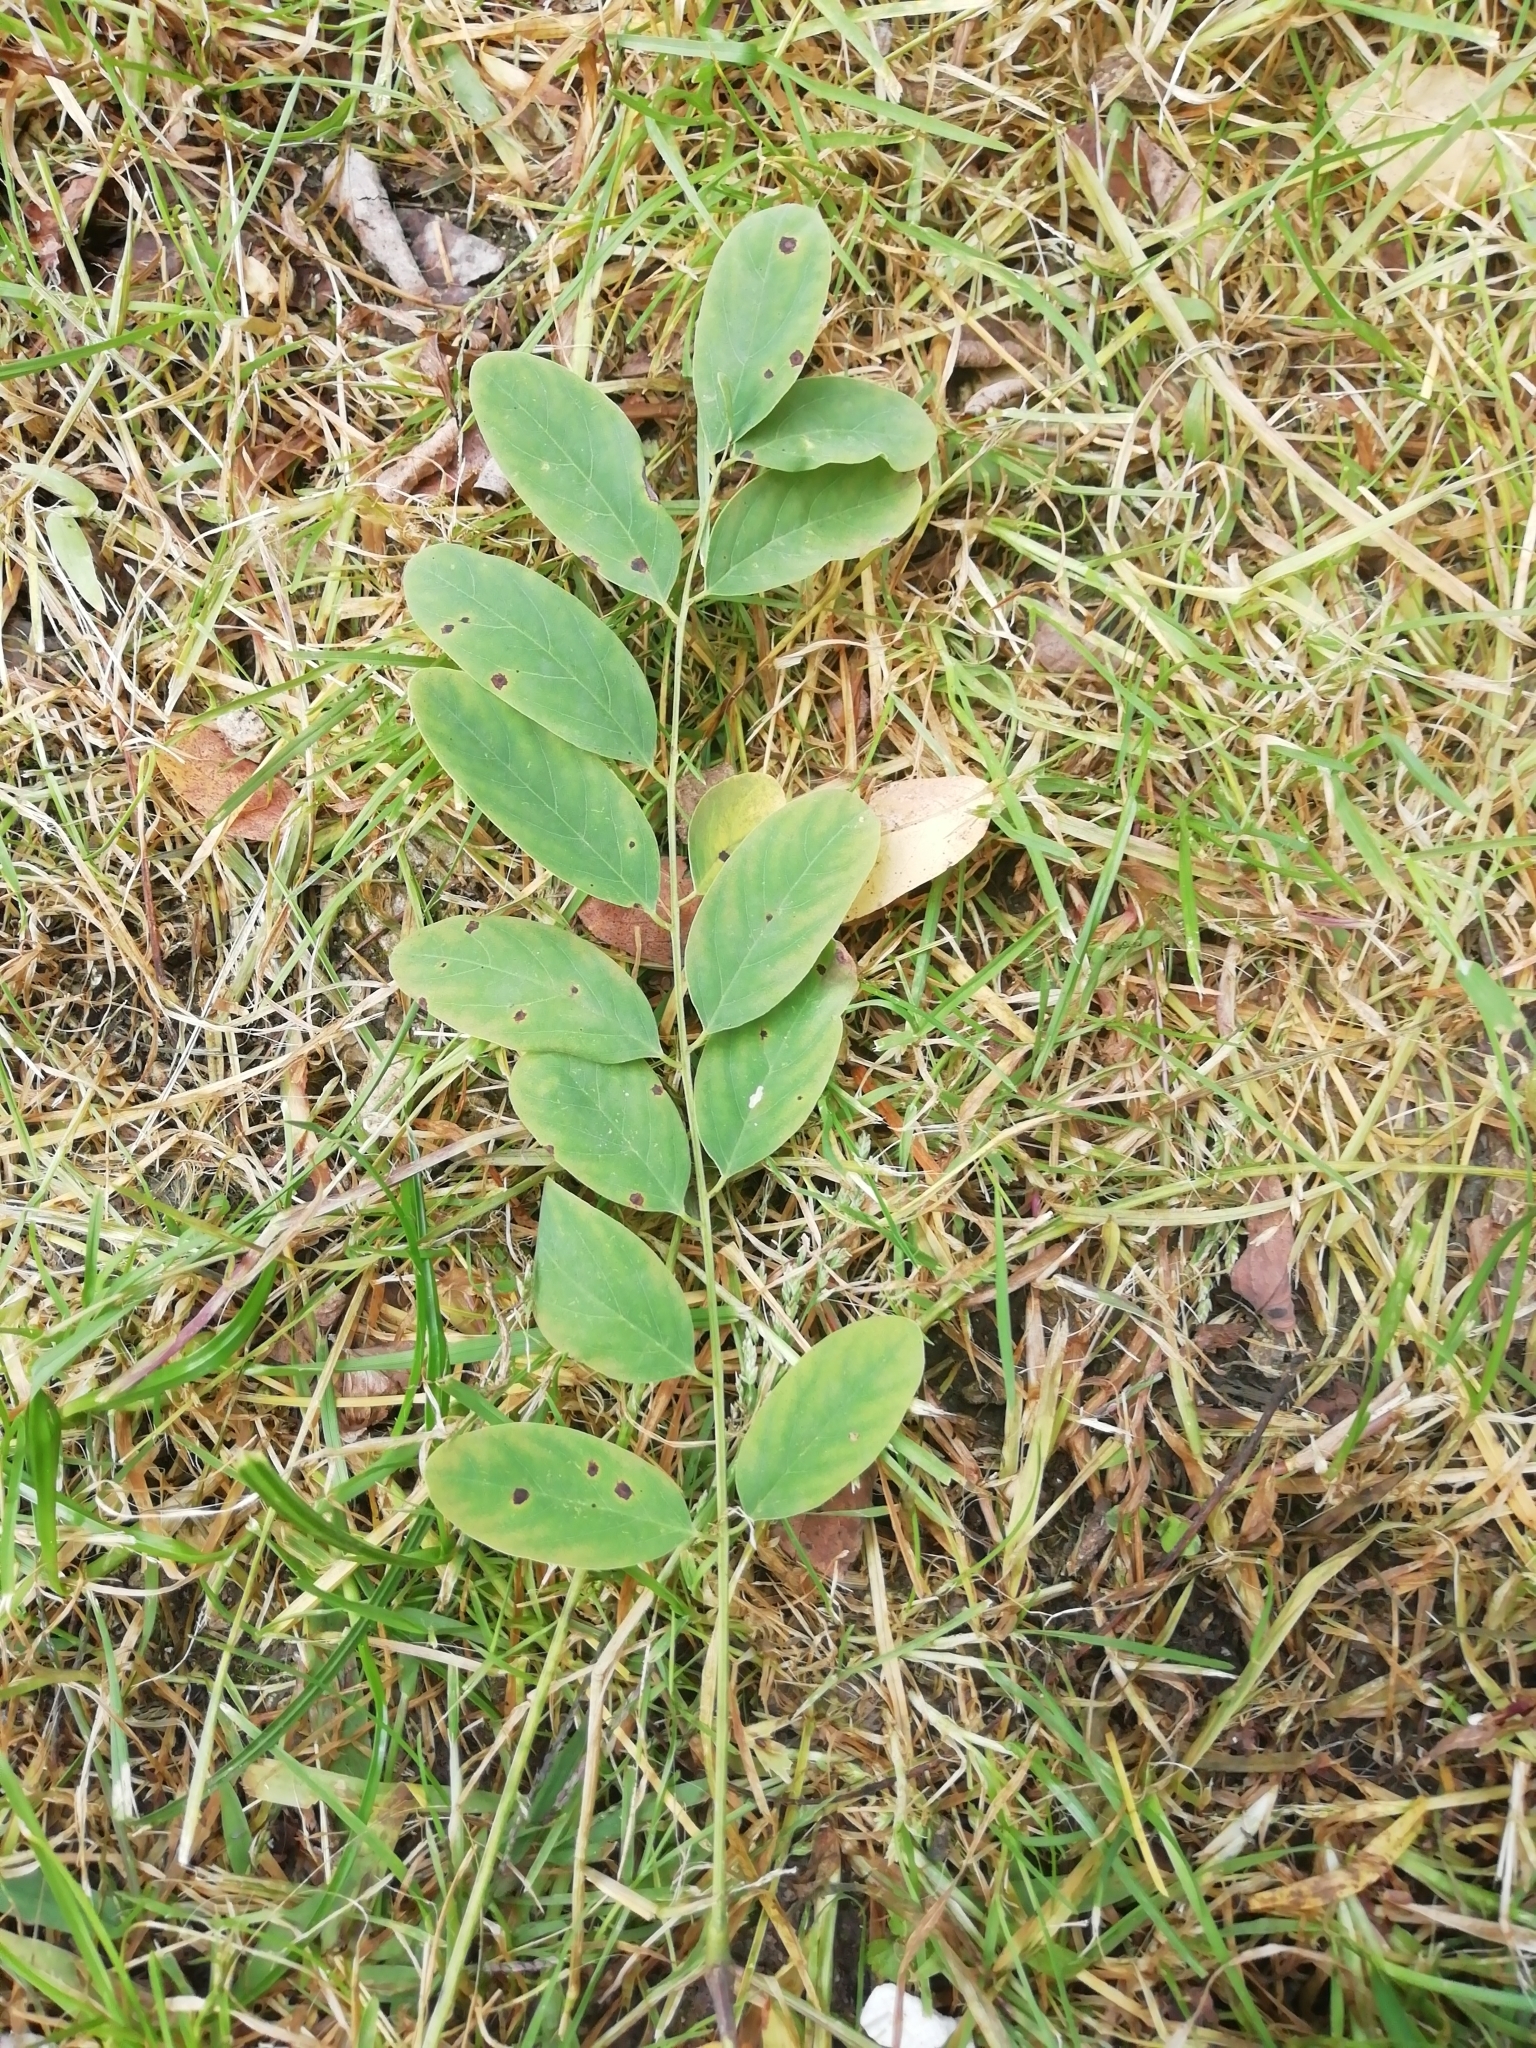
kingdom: Plantae
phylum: Tracheophyta
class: Magnoliopsida
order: Fabales
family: Fabaceae
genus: Robinia
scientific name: Robinia pseudoacacia
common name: Black locust
